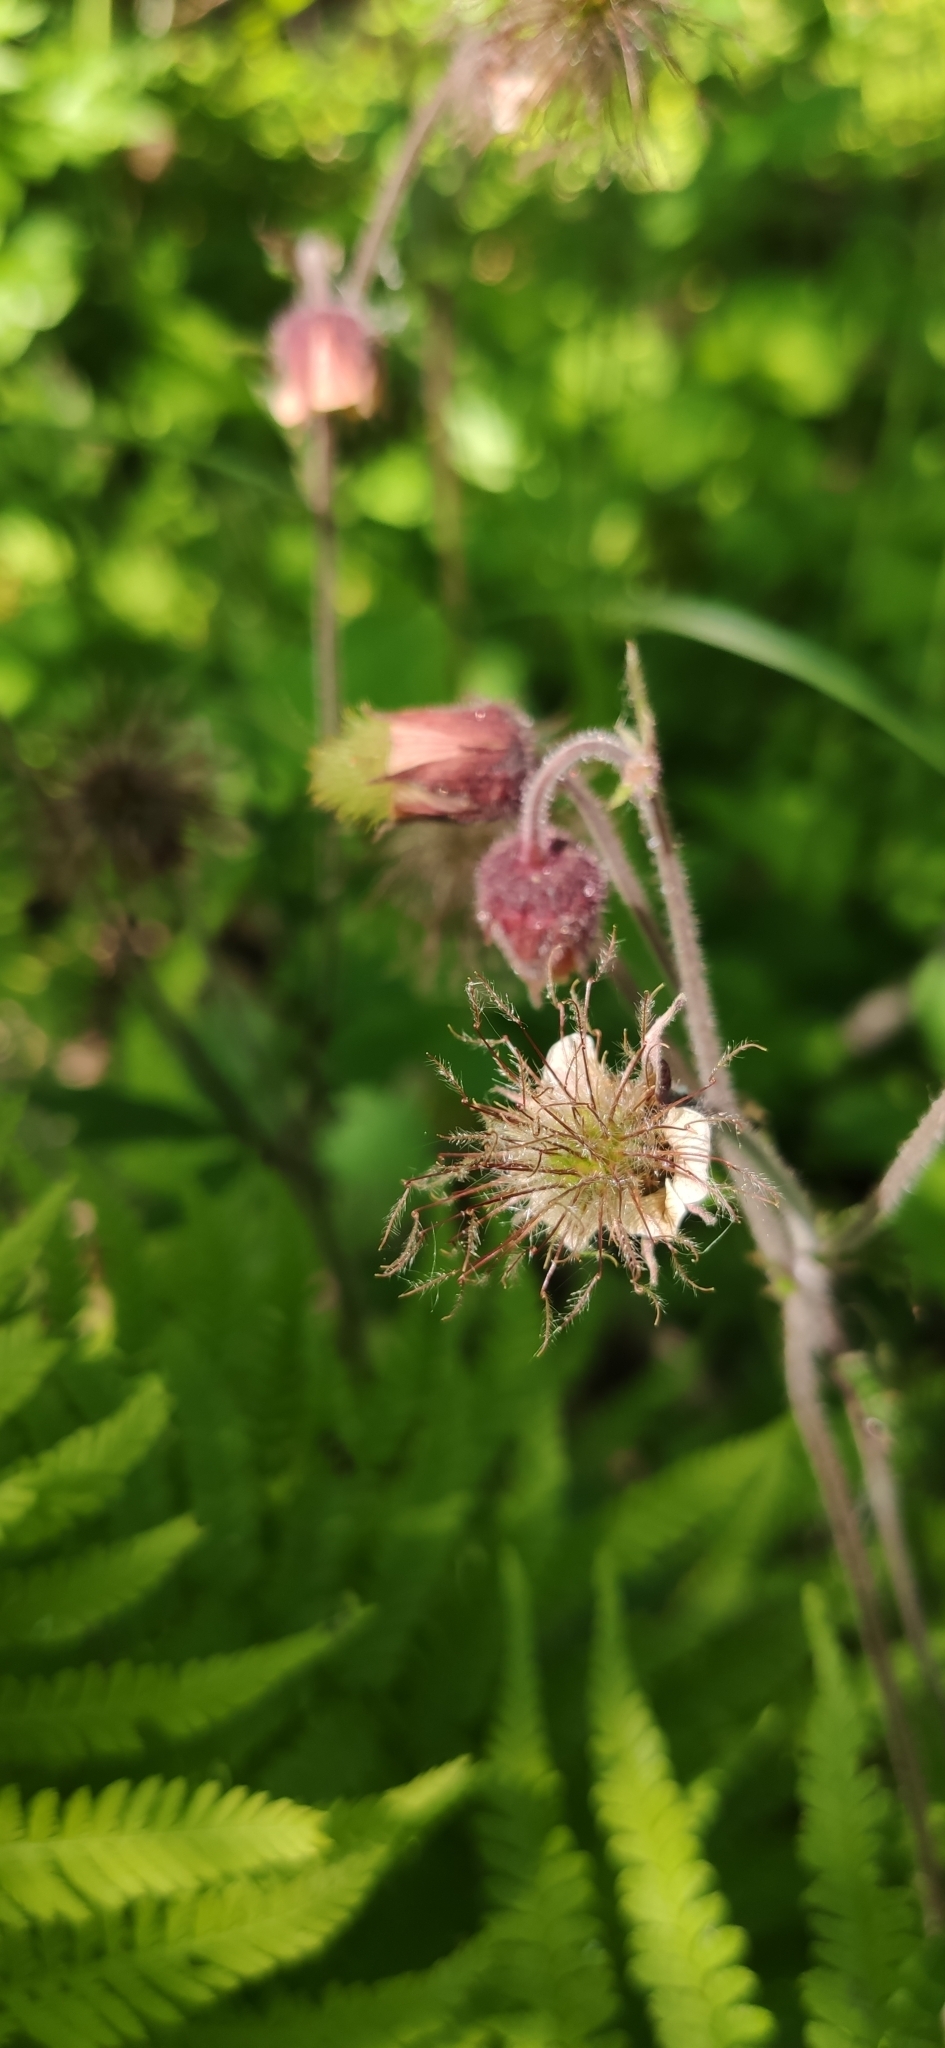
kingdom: Plantae
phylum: Tracheophyta
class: Magnoliopsida
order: Rosales
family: Rosaceae
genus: Geum
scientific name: Geum rivale
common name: Water avens
